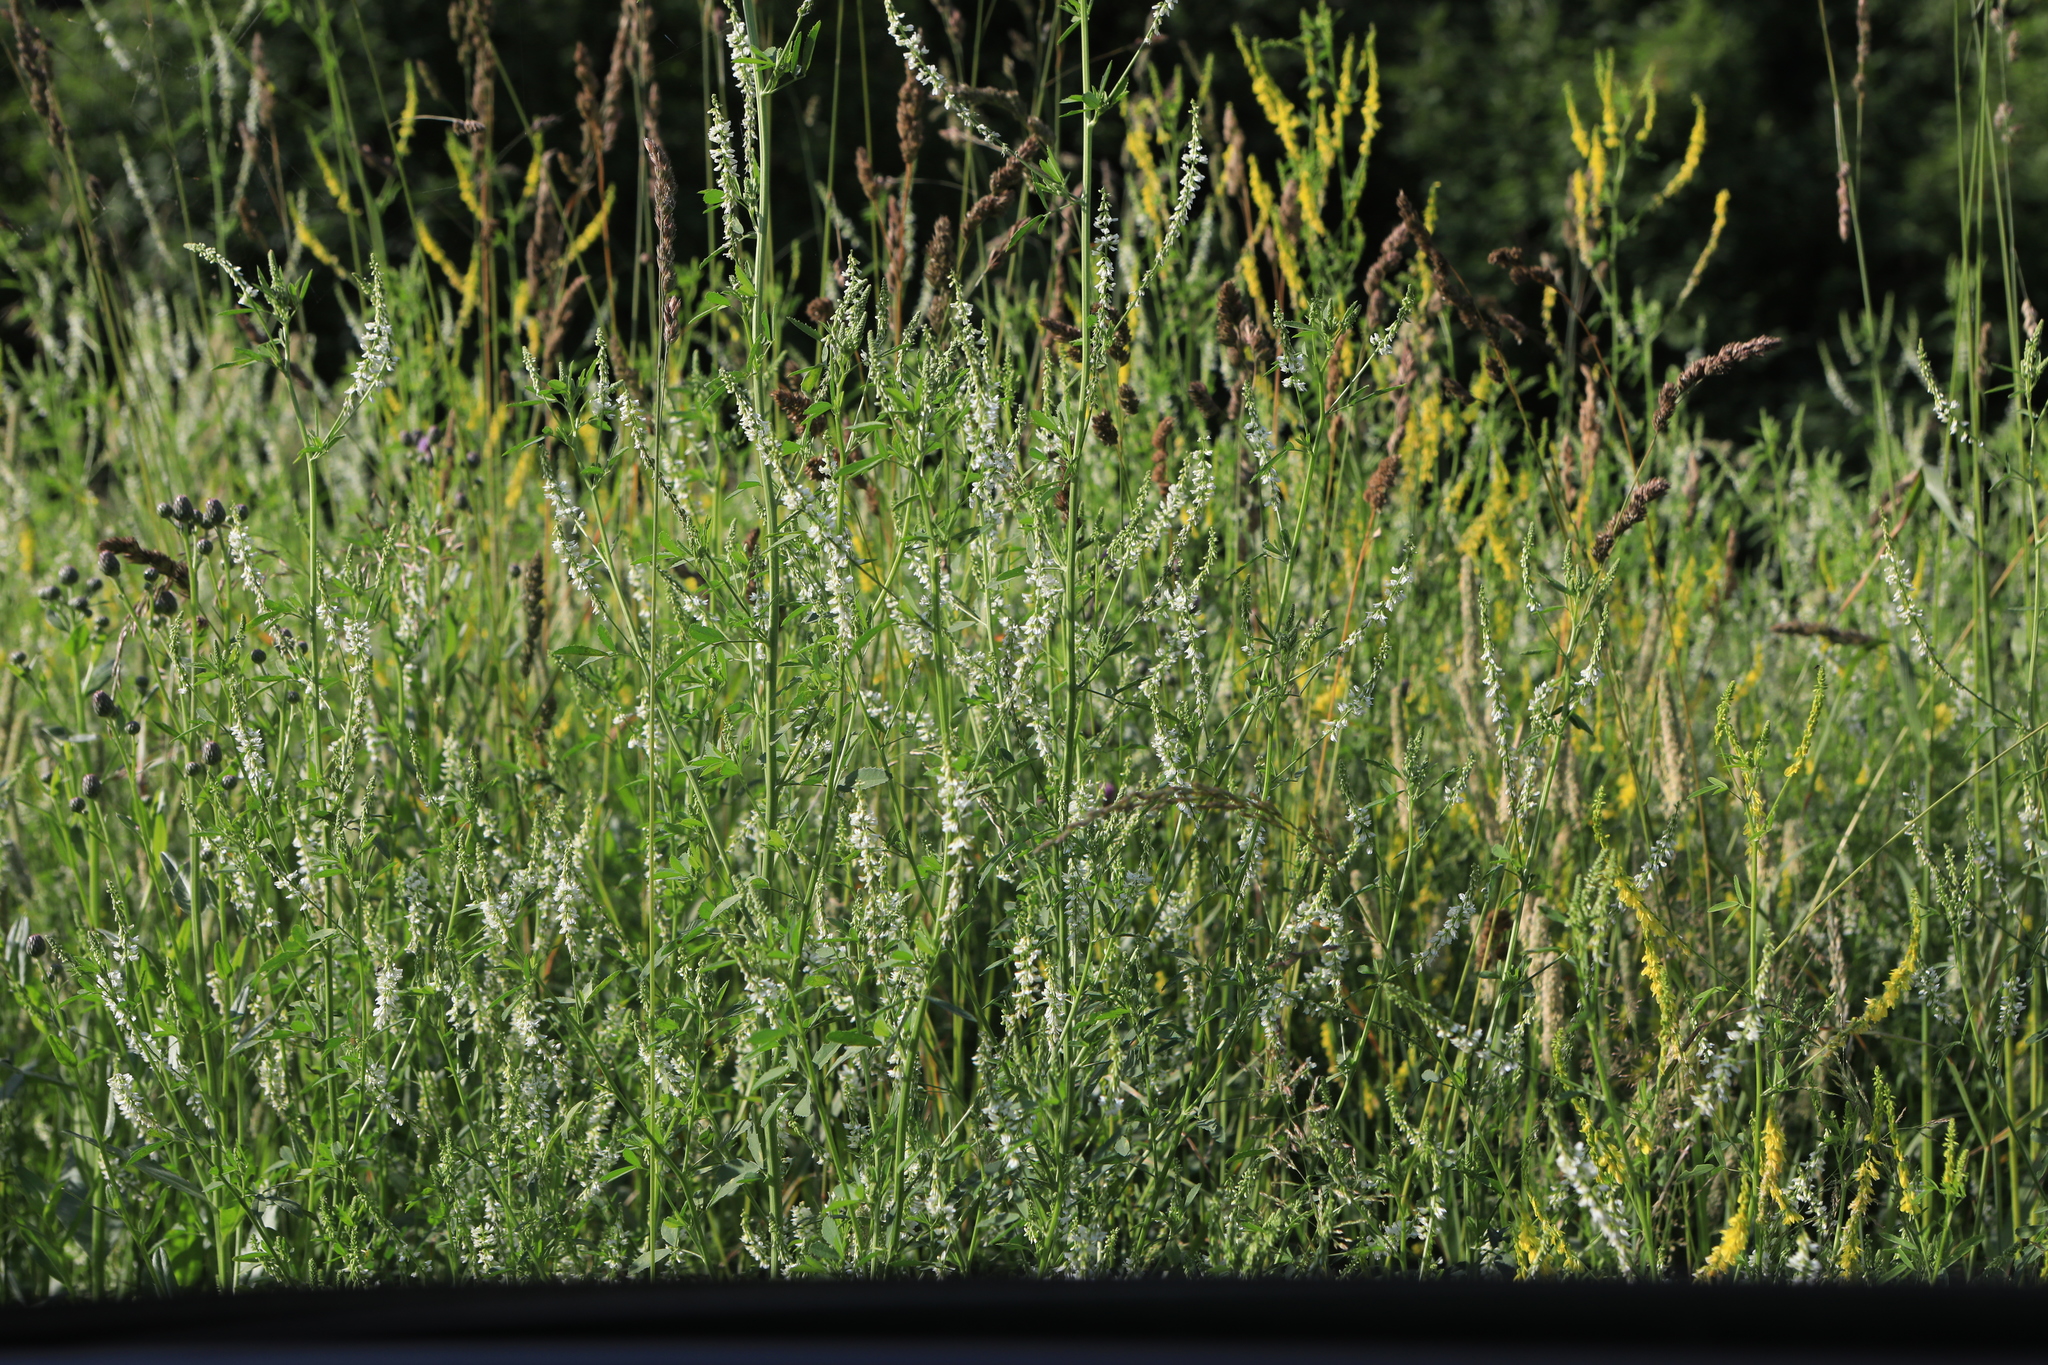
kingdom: Plantae
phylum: Tracheophyta
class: Magnoliopsida
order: Fabales
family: Fabaceae
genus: Melilotus
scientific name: Melilotus albus
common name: White melilot
